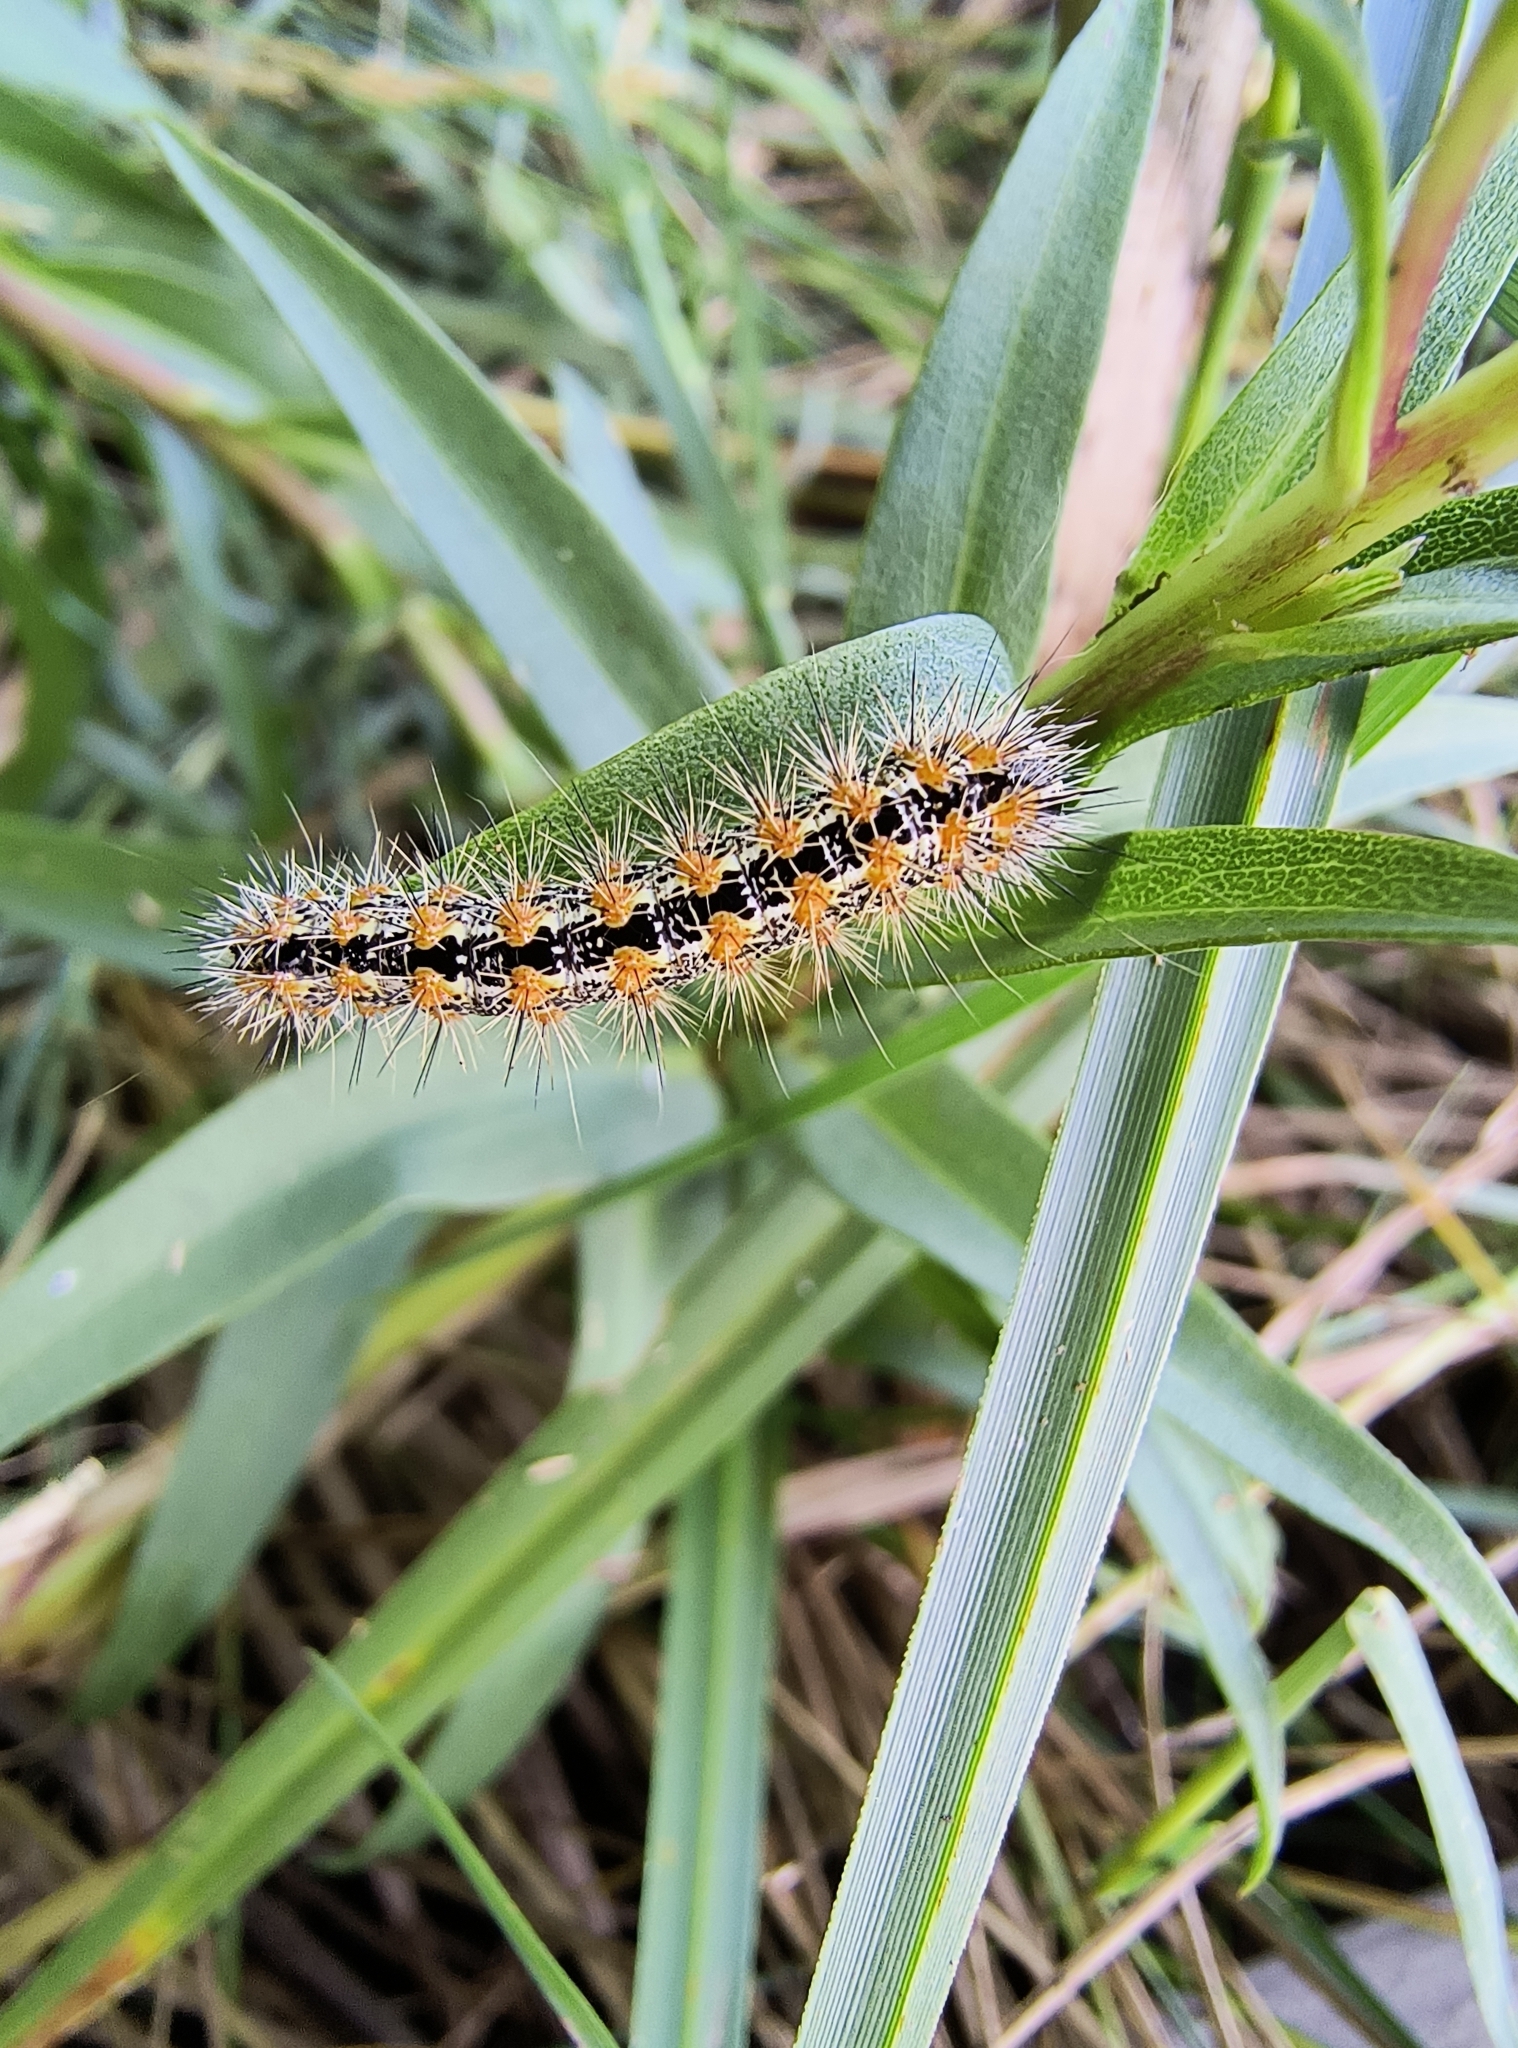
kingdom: Animalia
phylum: Arthropoda
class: Insecta
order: Lepidoptera
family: Noctuidae
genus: Acronicta
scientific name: Acronicta insularis
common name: Henry's marsh moth
